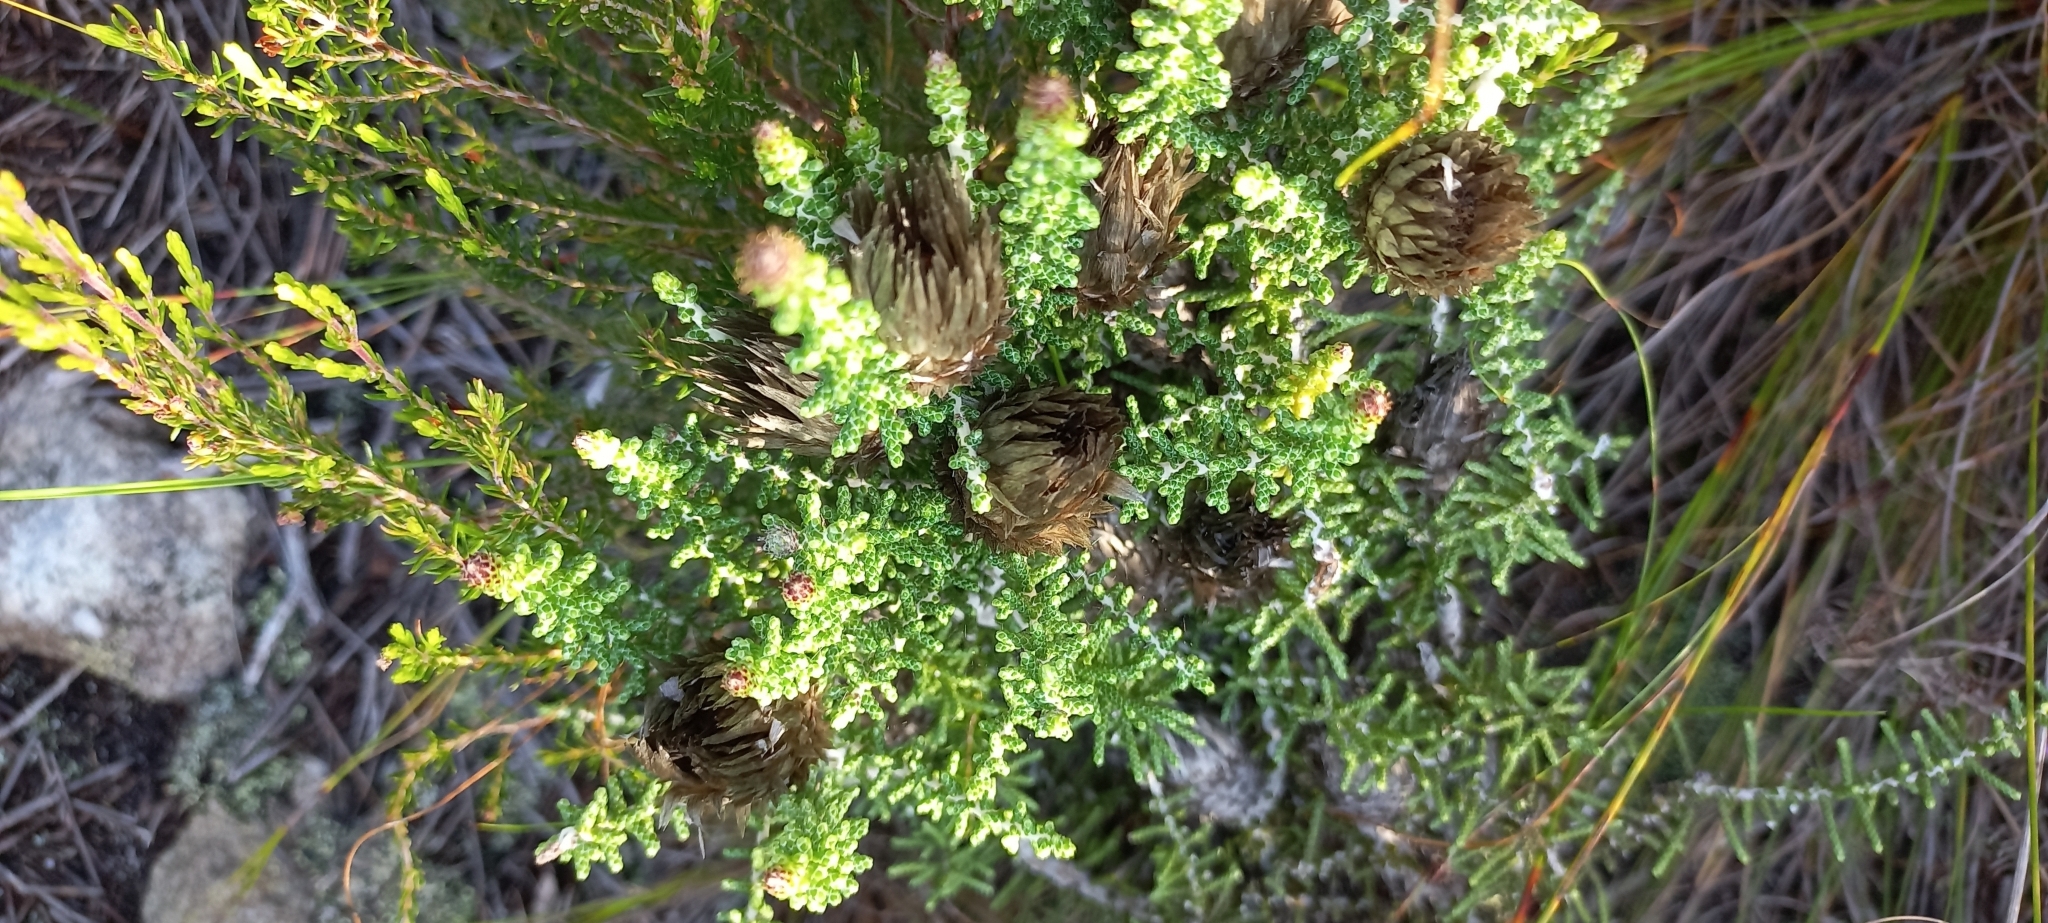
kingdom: Plantae
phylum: Tracheophyta
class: Magnoliopsida
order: Asterales
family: Asteraceae
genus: Phaenocoma
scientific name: Phaenocoma prolifera
